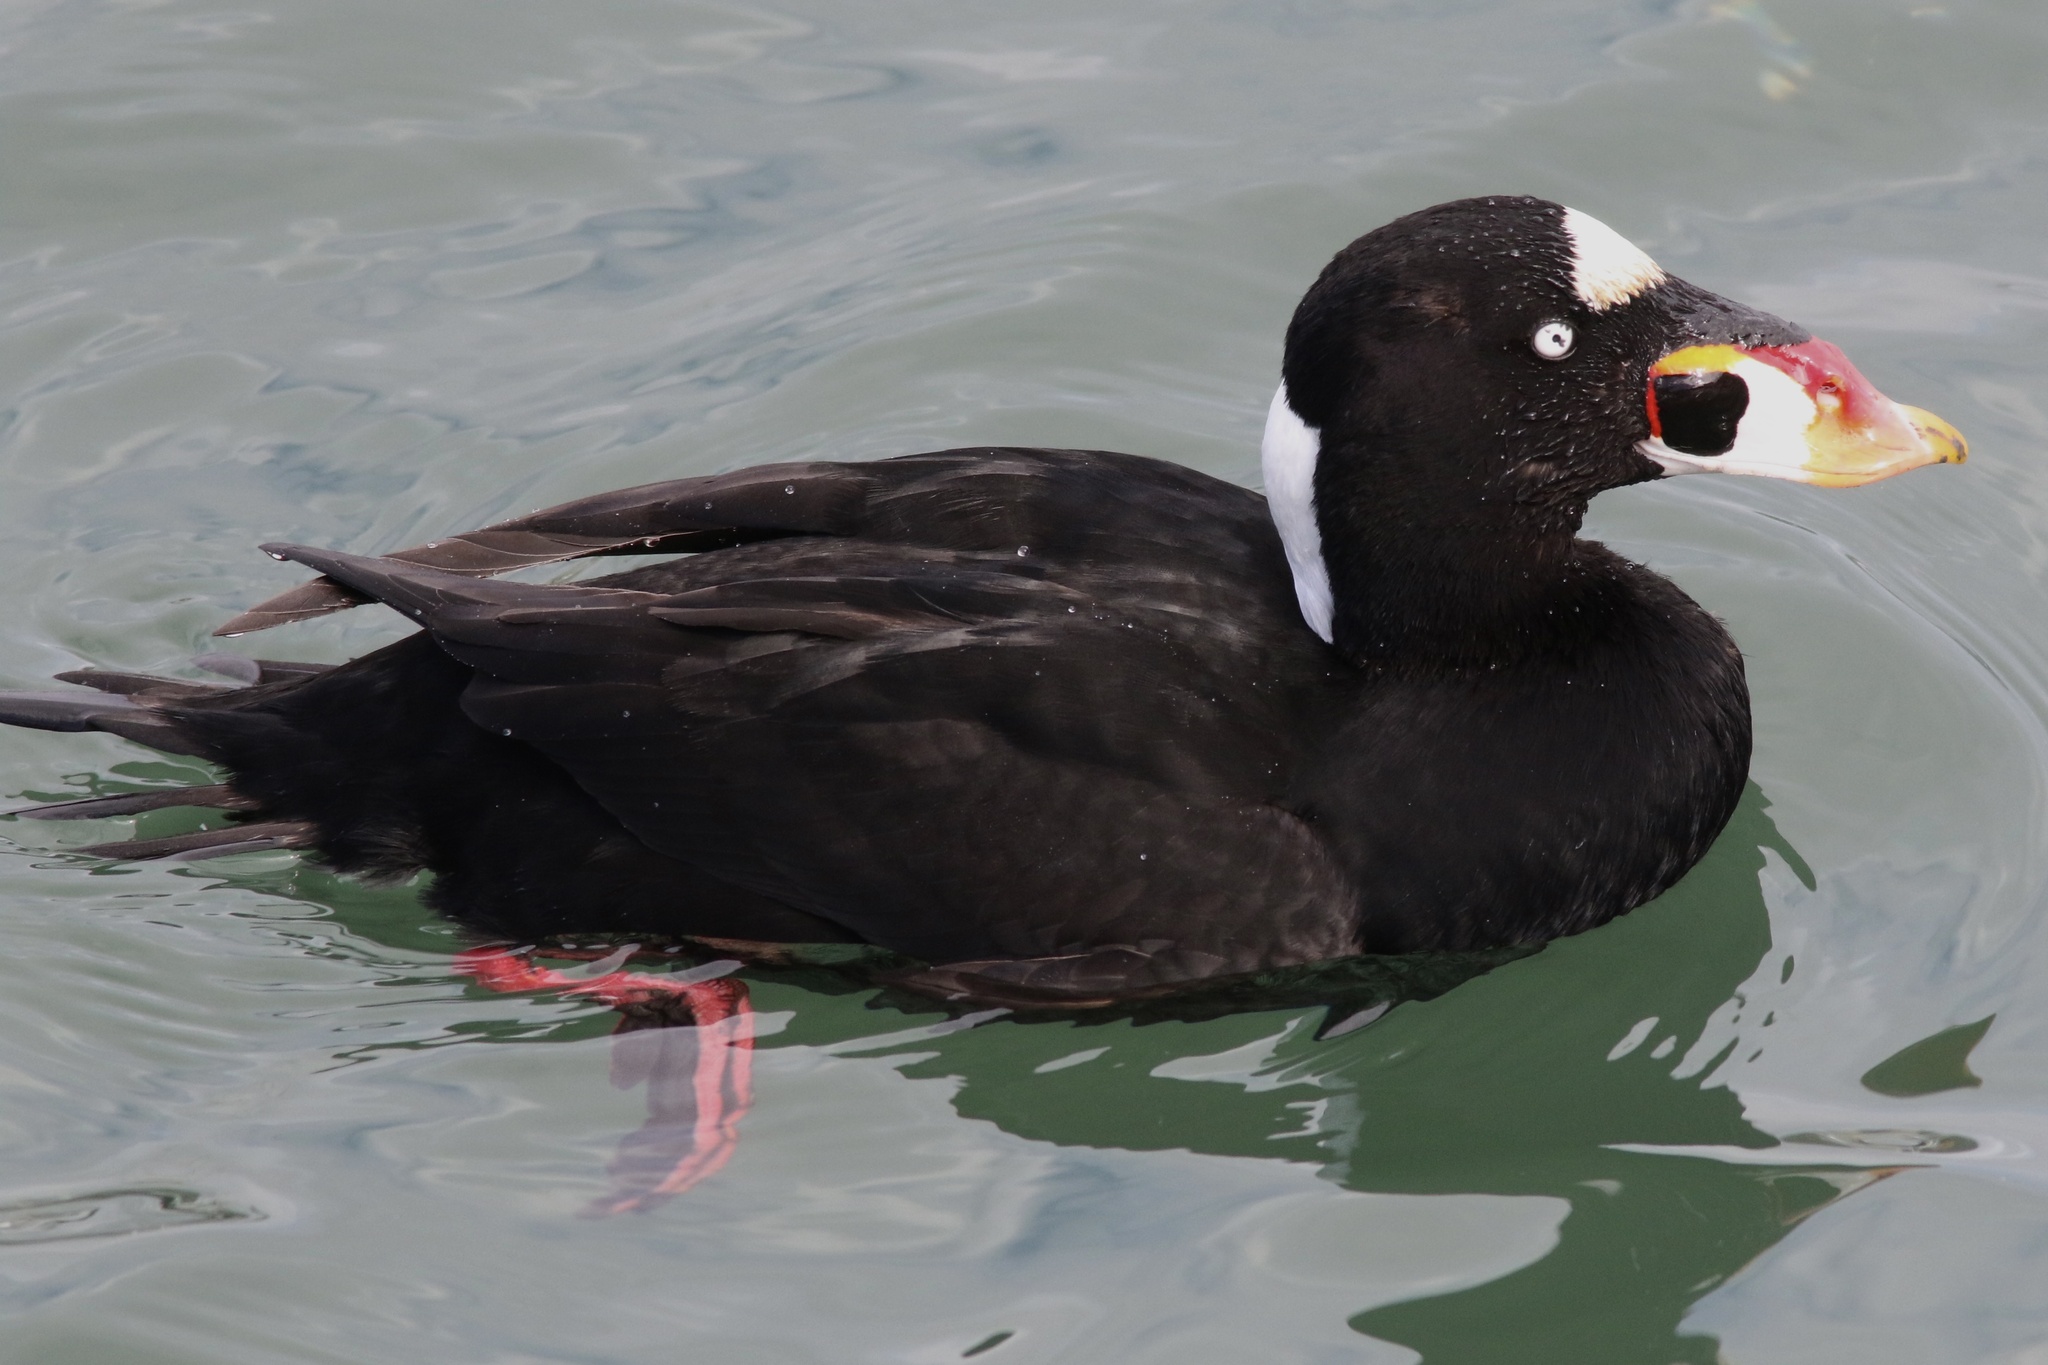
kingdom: Animalia
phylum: Chordata
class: Aves
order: Anseriformes
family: Anatidae
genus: Melanitta
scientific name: Melanitta perspicillata
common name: Surf scoter
